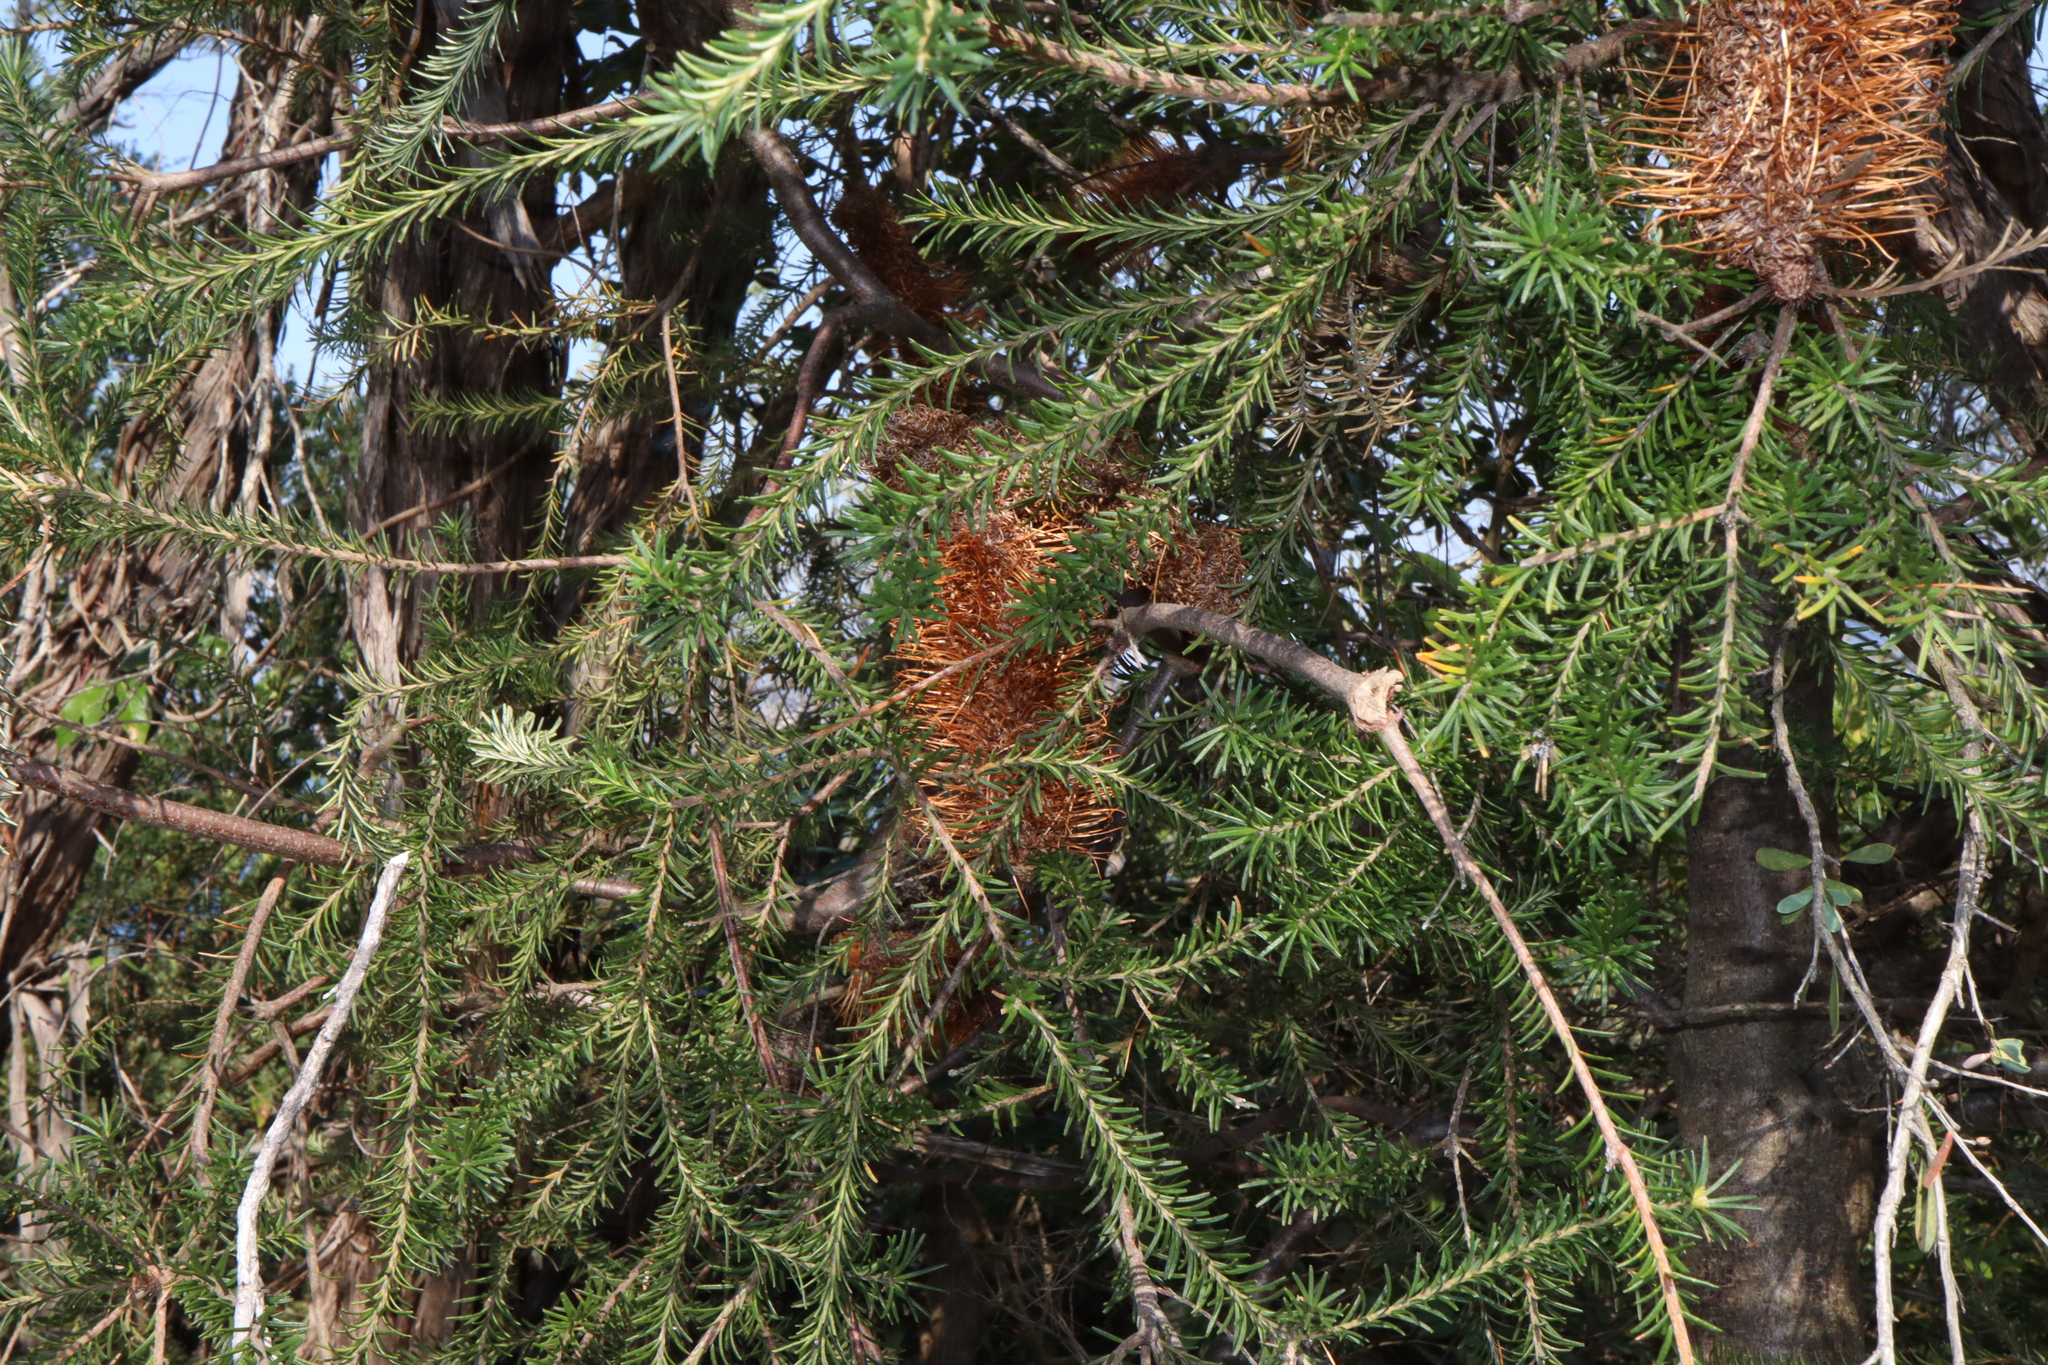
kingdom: Plantae
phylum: Tracheophyta
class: Magnoliopsida
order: Proteales
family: Proteaceae
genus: Banksia
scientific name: Banksia ericifolia
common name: Heath-leaf banksia
